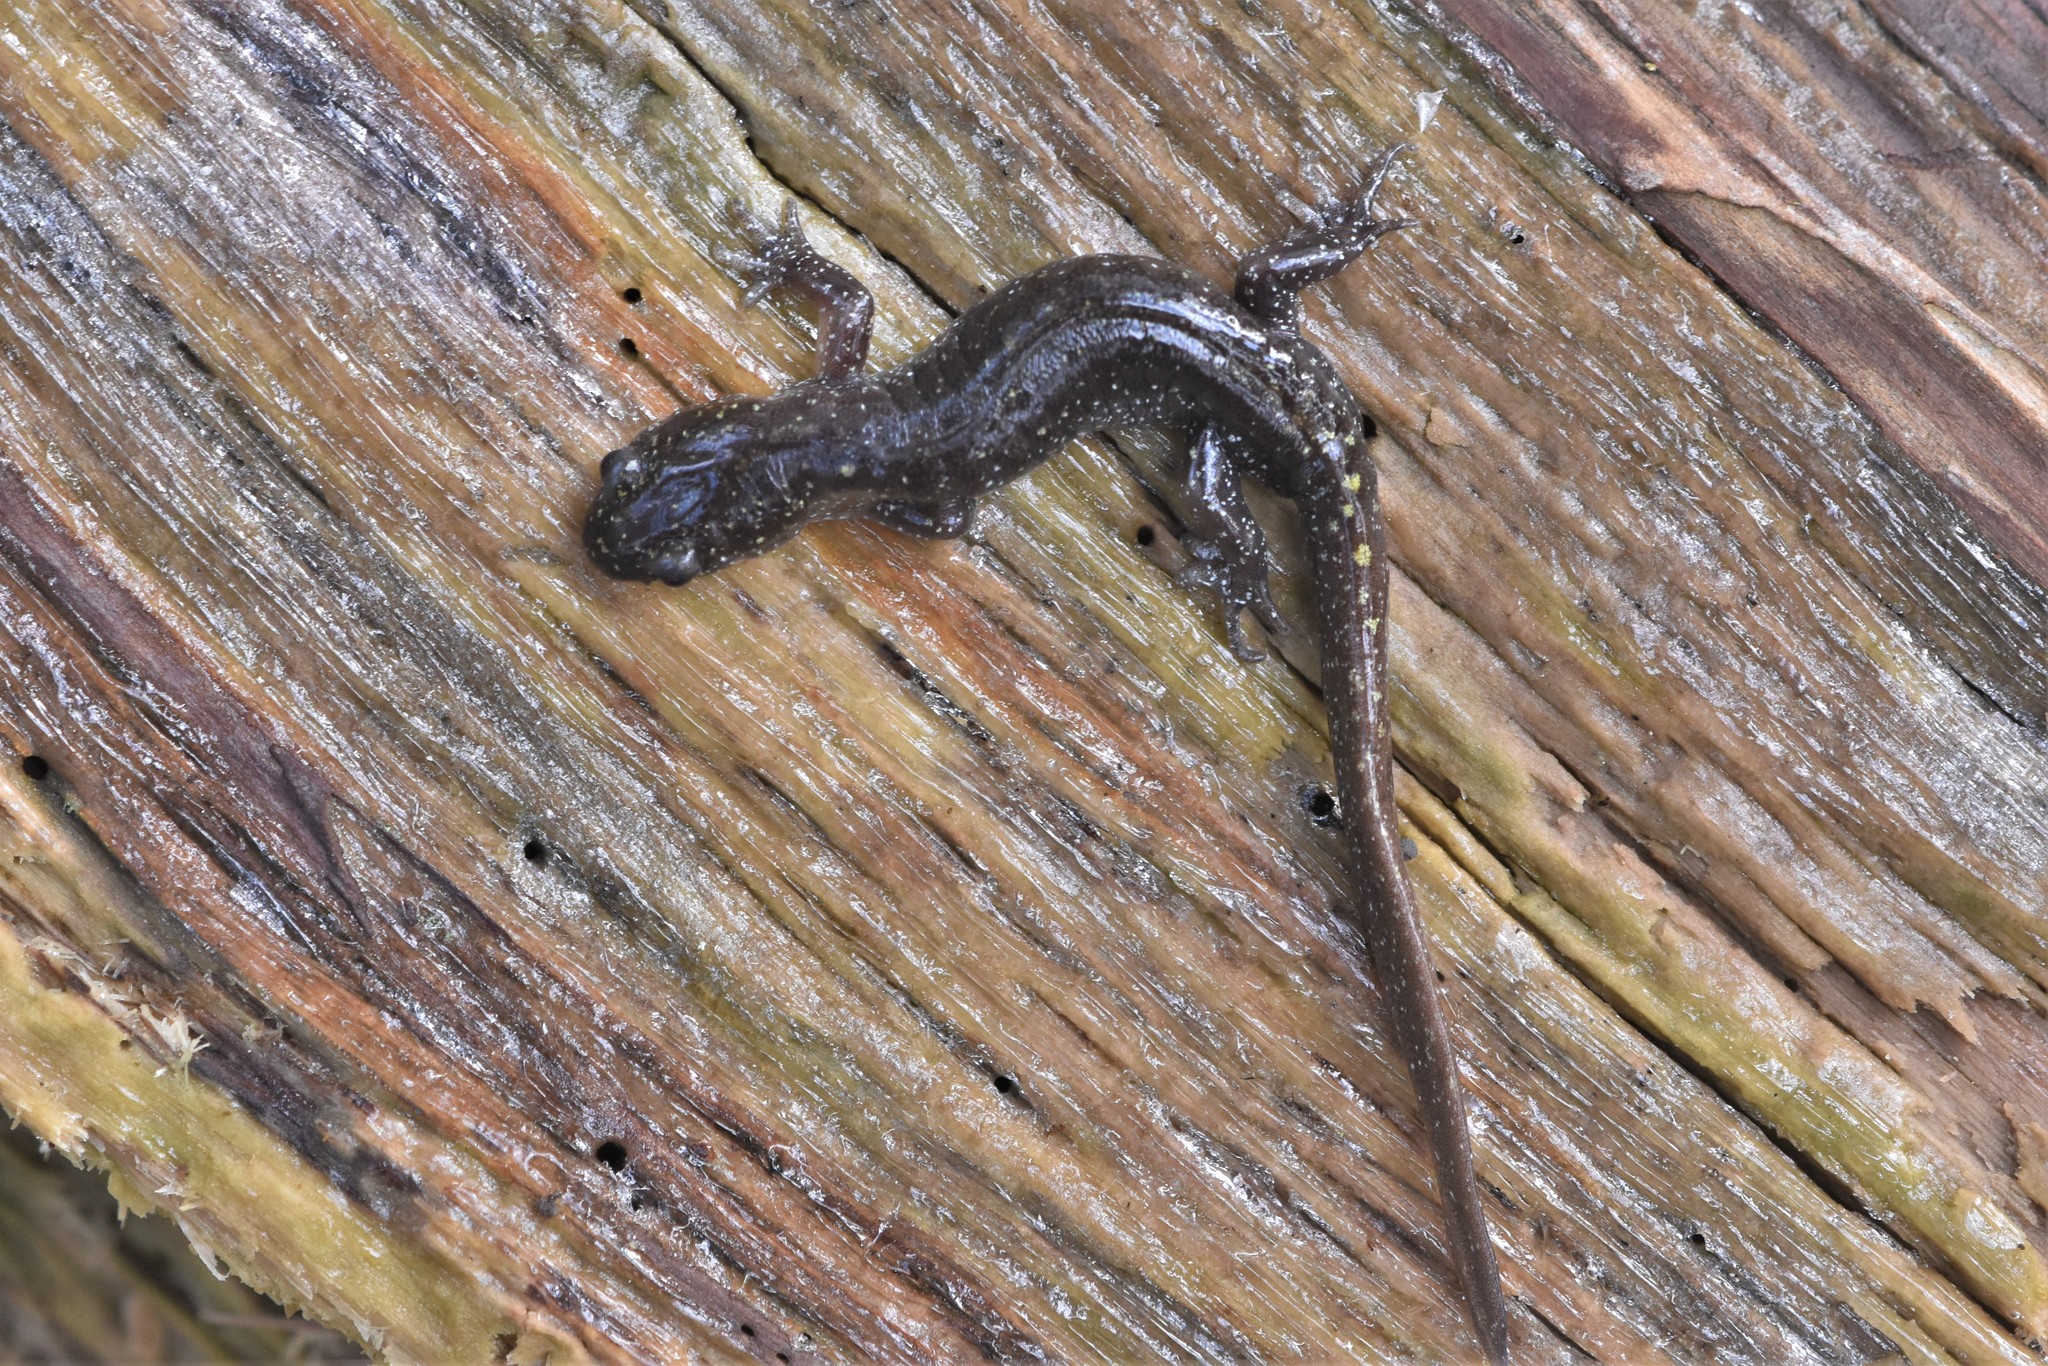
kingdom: Animalia
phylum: Chordata
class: Amphibia
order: Caudata
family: Ambystomatidae
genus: Ambystoma
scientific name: Ambystoma macrodactylum
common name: Long-toed salamander
